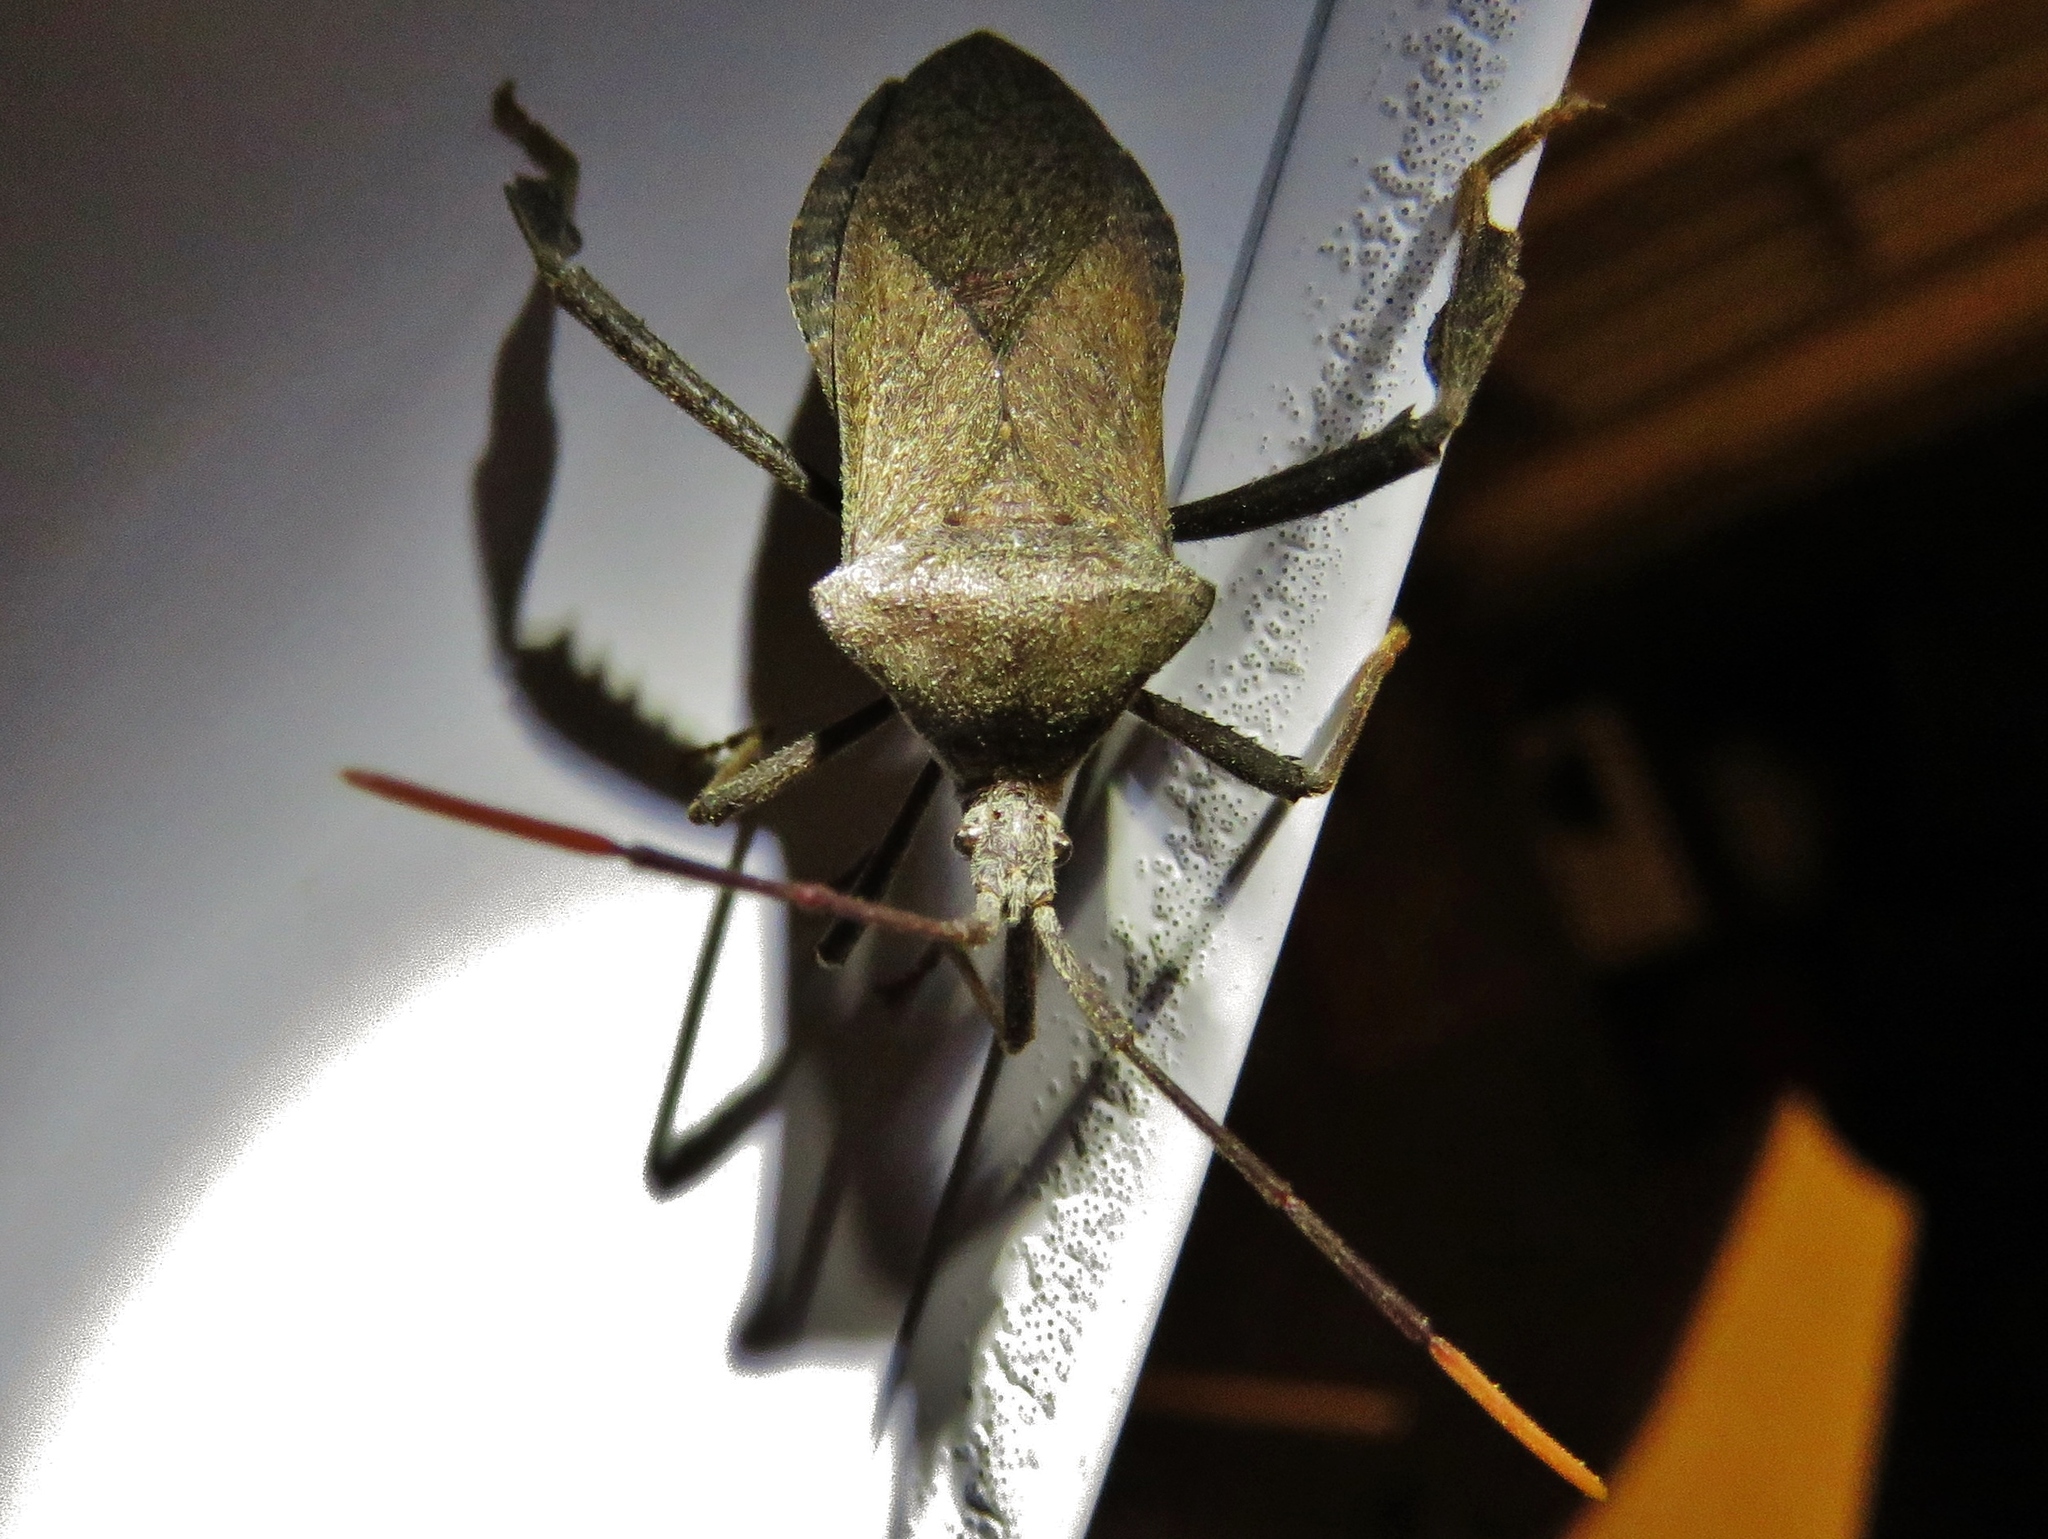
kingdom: Animalia
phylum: Arthropoda
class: Insecta
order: Hemiptera
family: Coreidae
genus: Acanthocephala
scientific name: Acanthocephala terminalis
